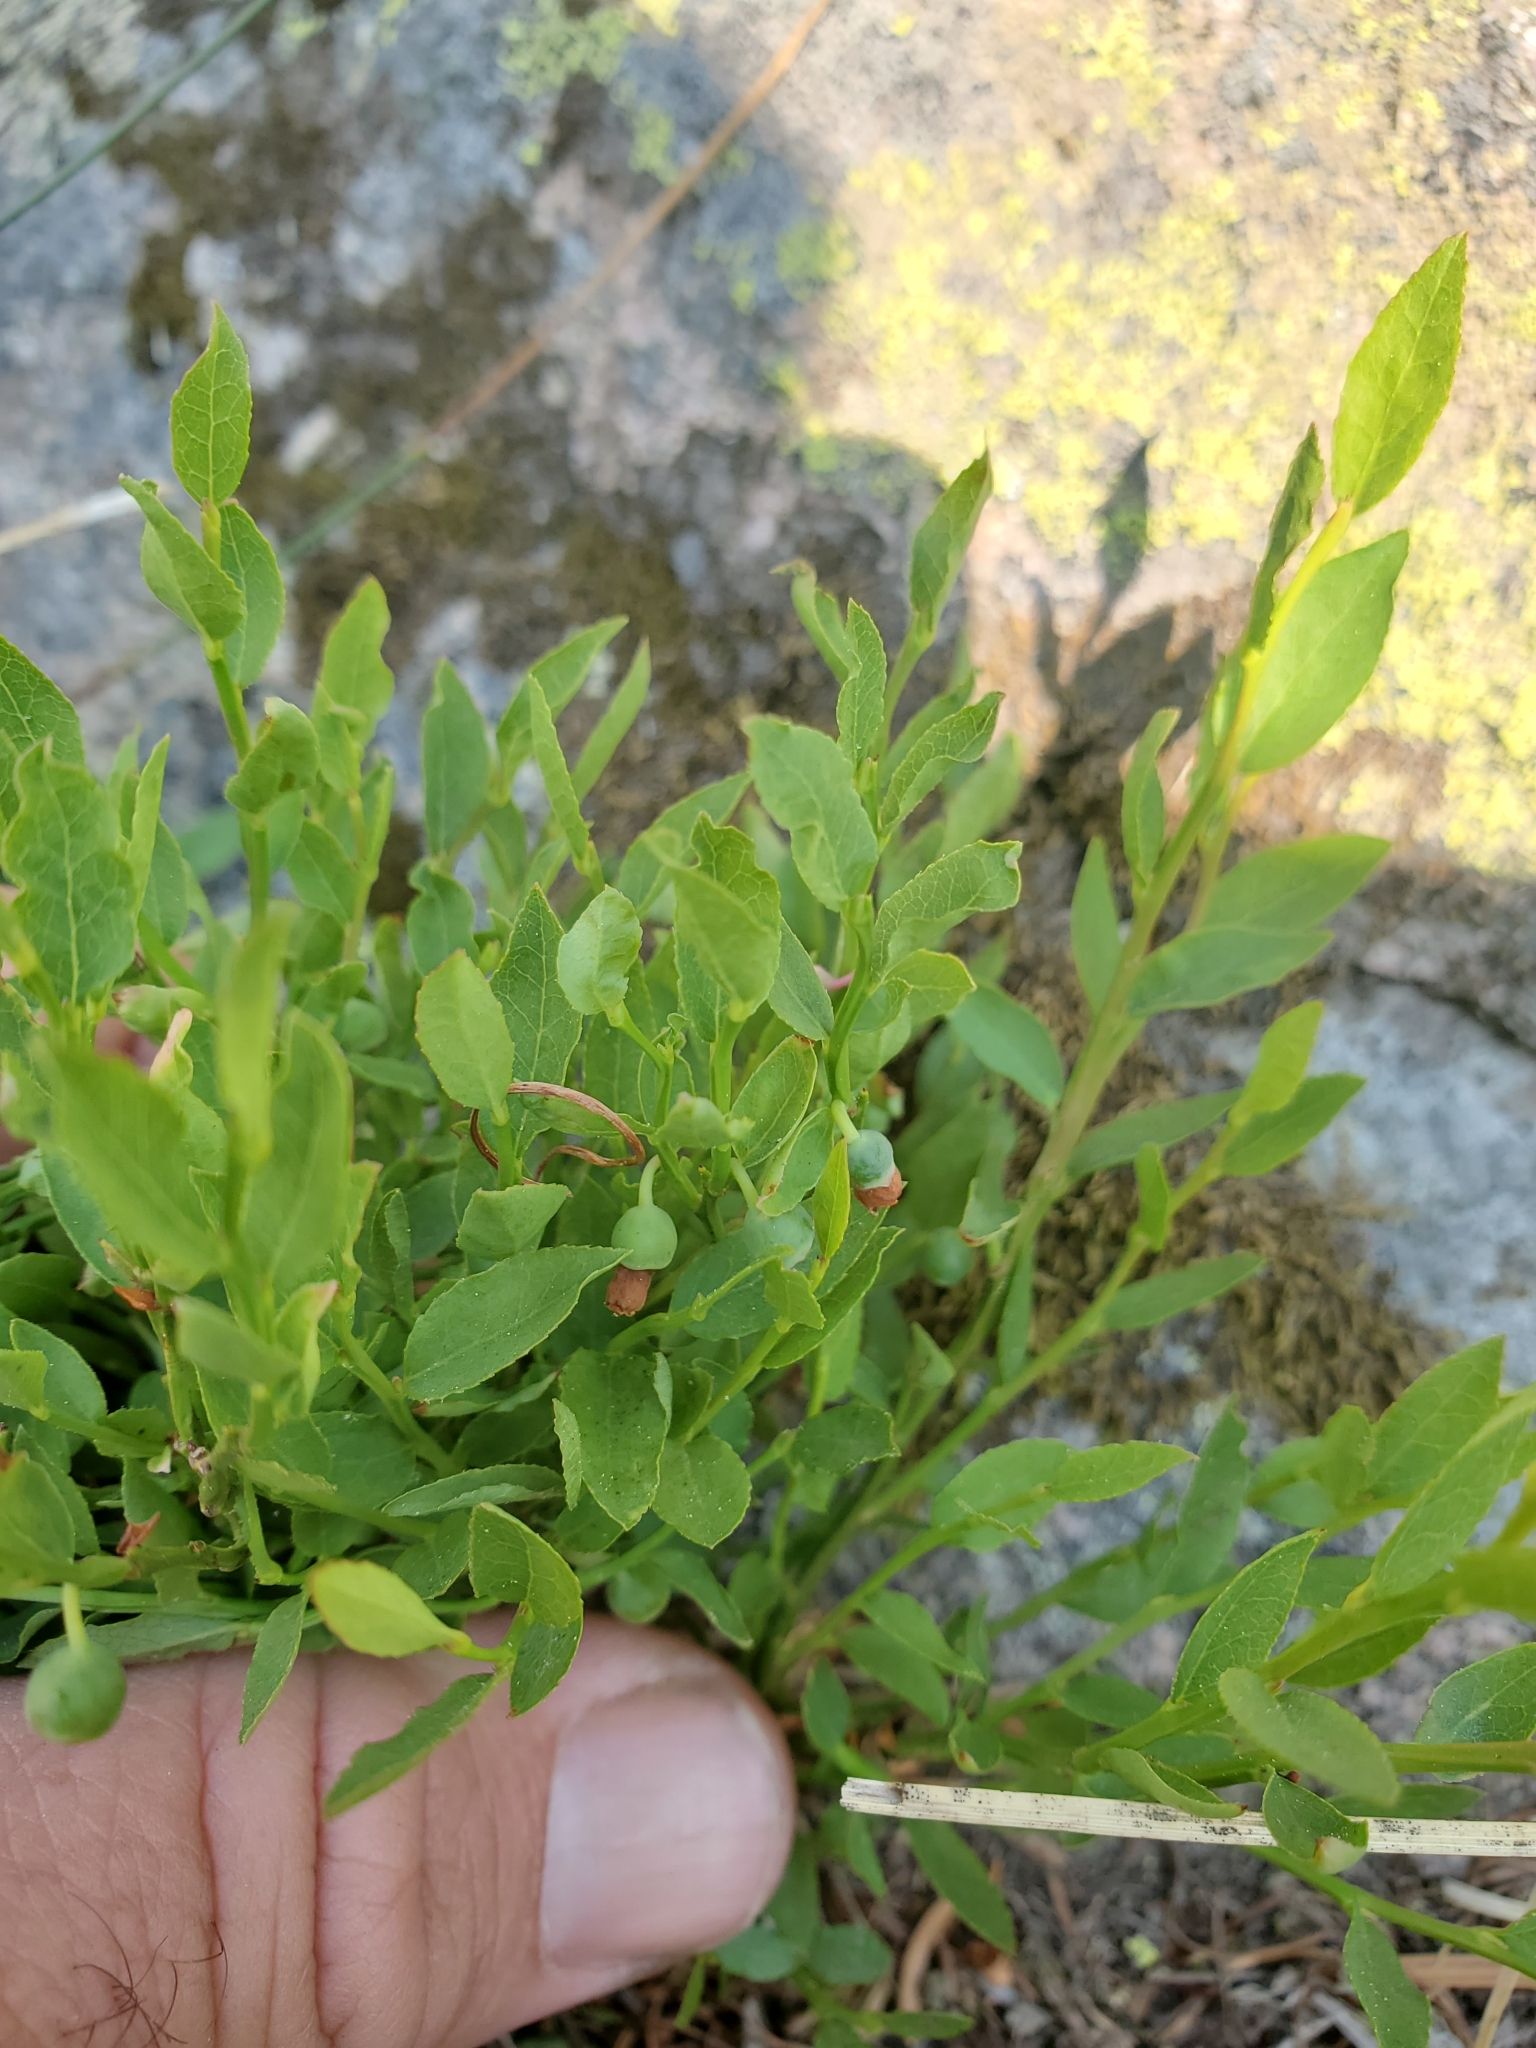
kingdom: Plantae
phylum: Tracheophyta
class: Magnoliopsida
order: Ericales
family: Ericaceae
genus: Vaccinium
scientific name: Vaccinium scoparium
